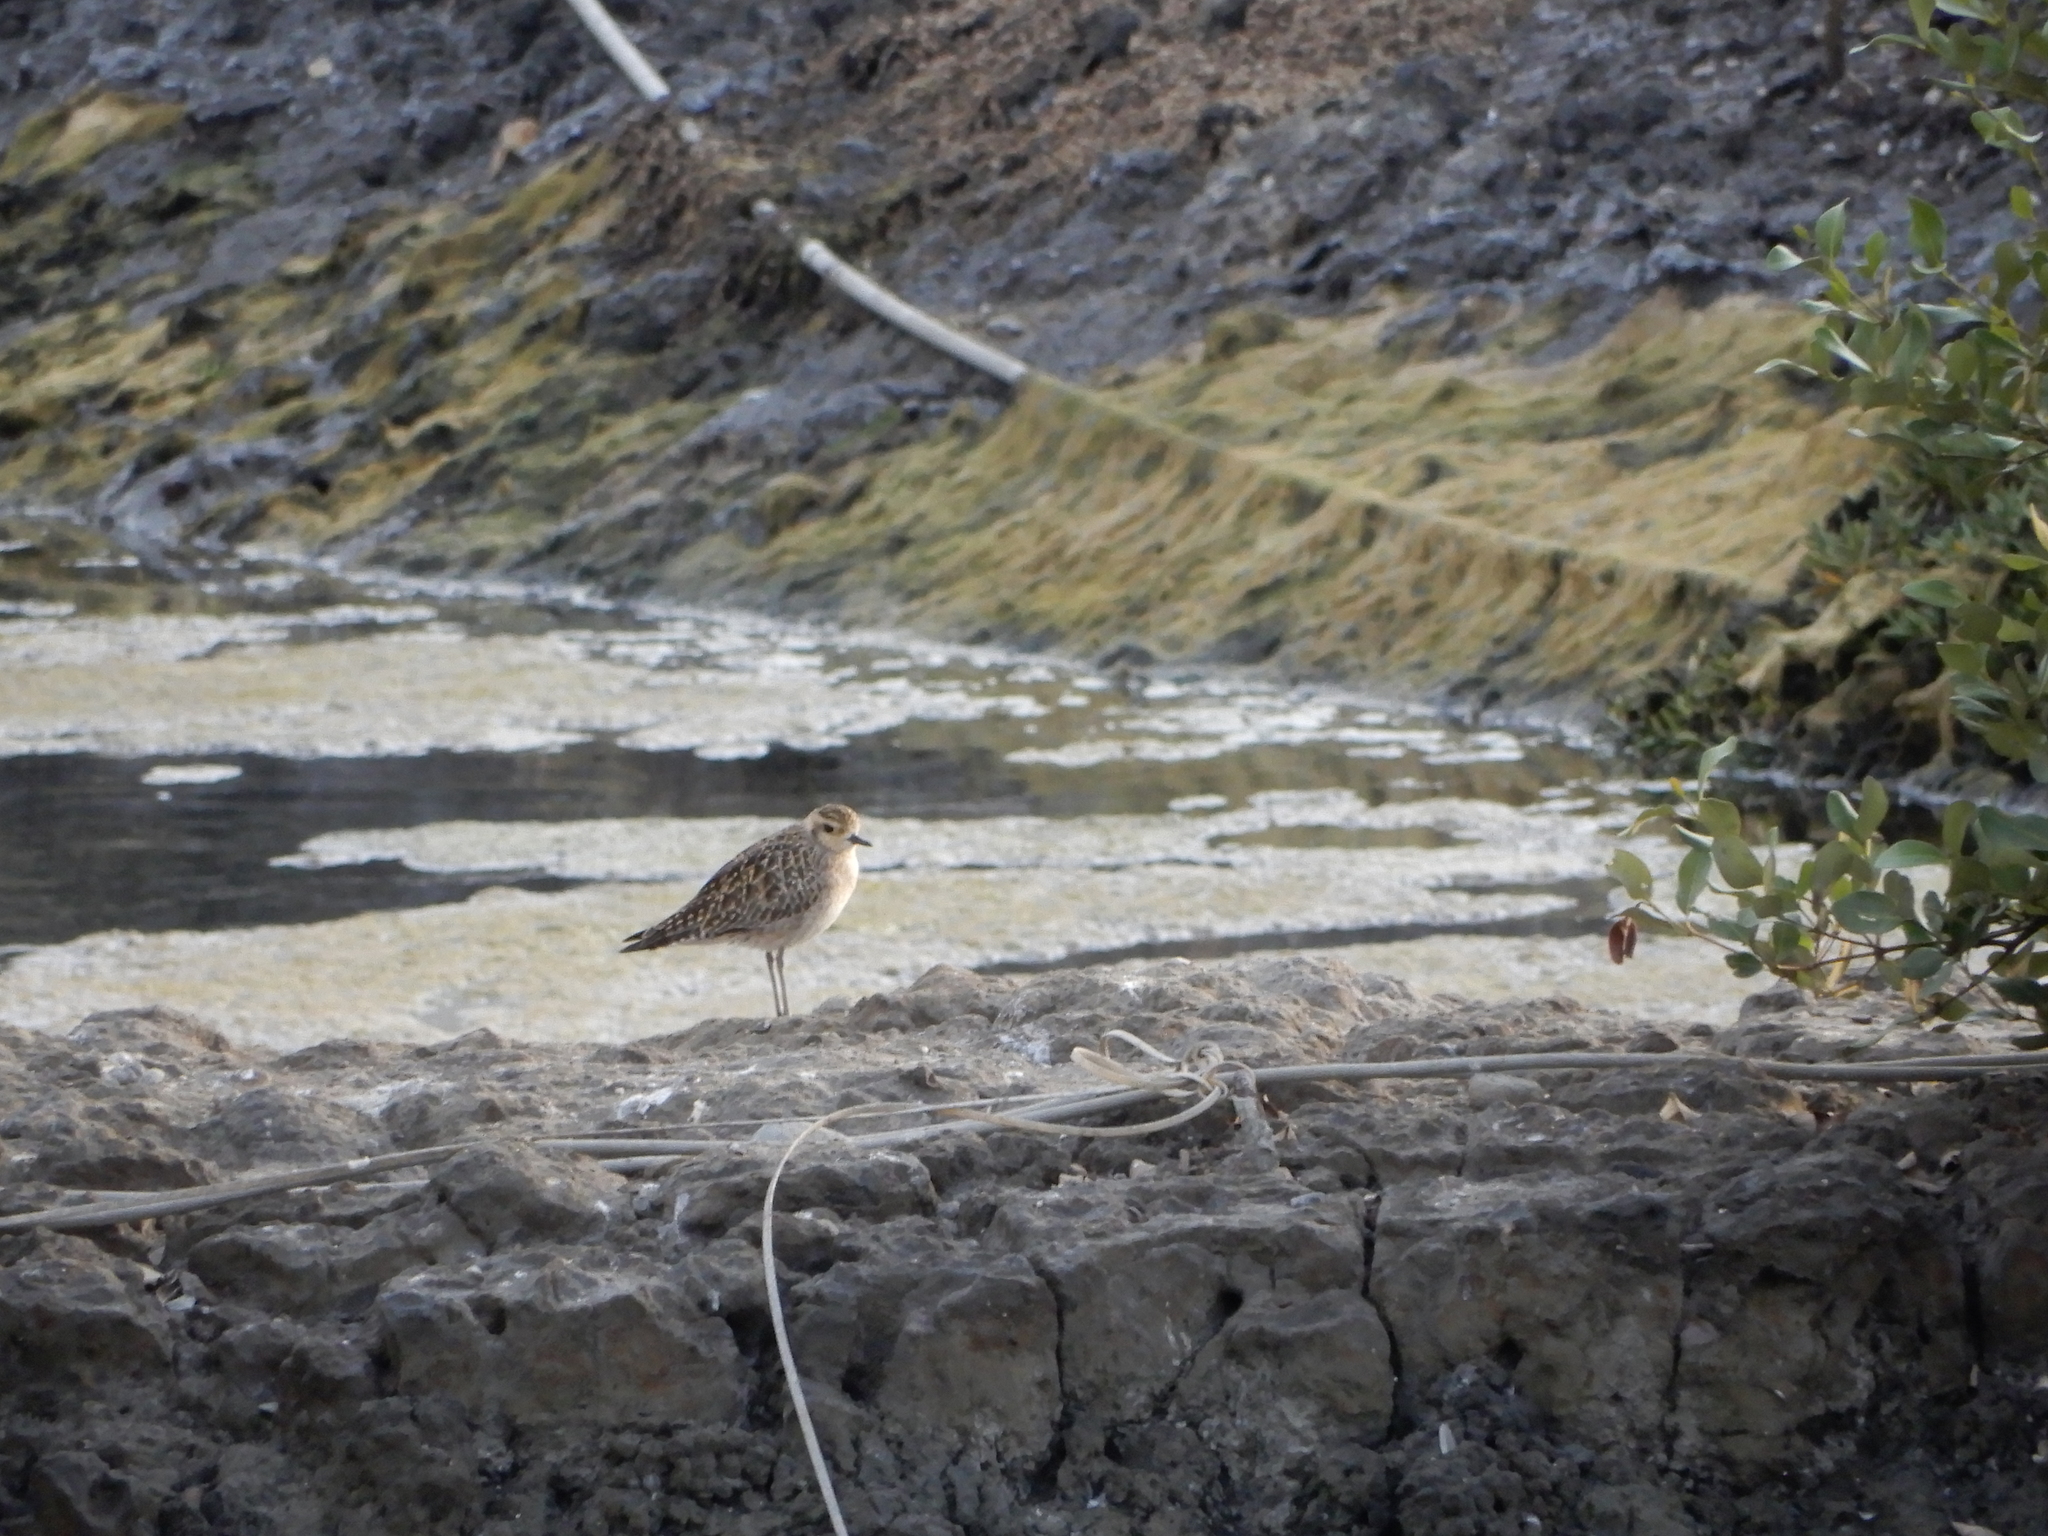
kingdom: Animalia
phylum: Chordata
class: Aves
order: Charadriiformes
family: Charadriidae
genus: Pluvialis
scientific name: Pluvialis fulva
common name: Pacific golden plover
